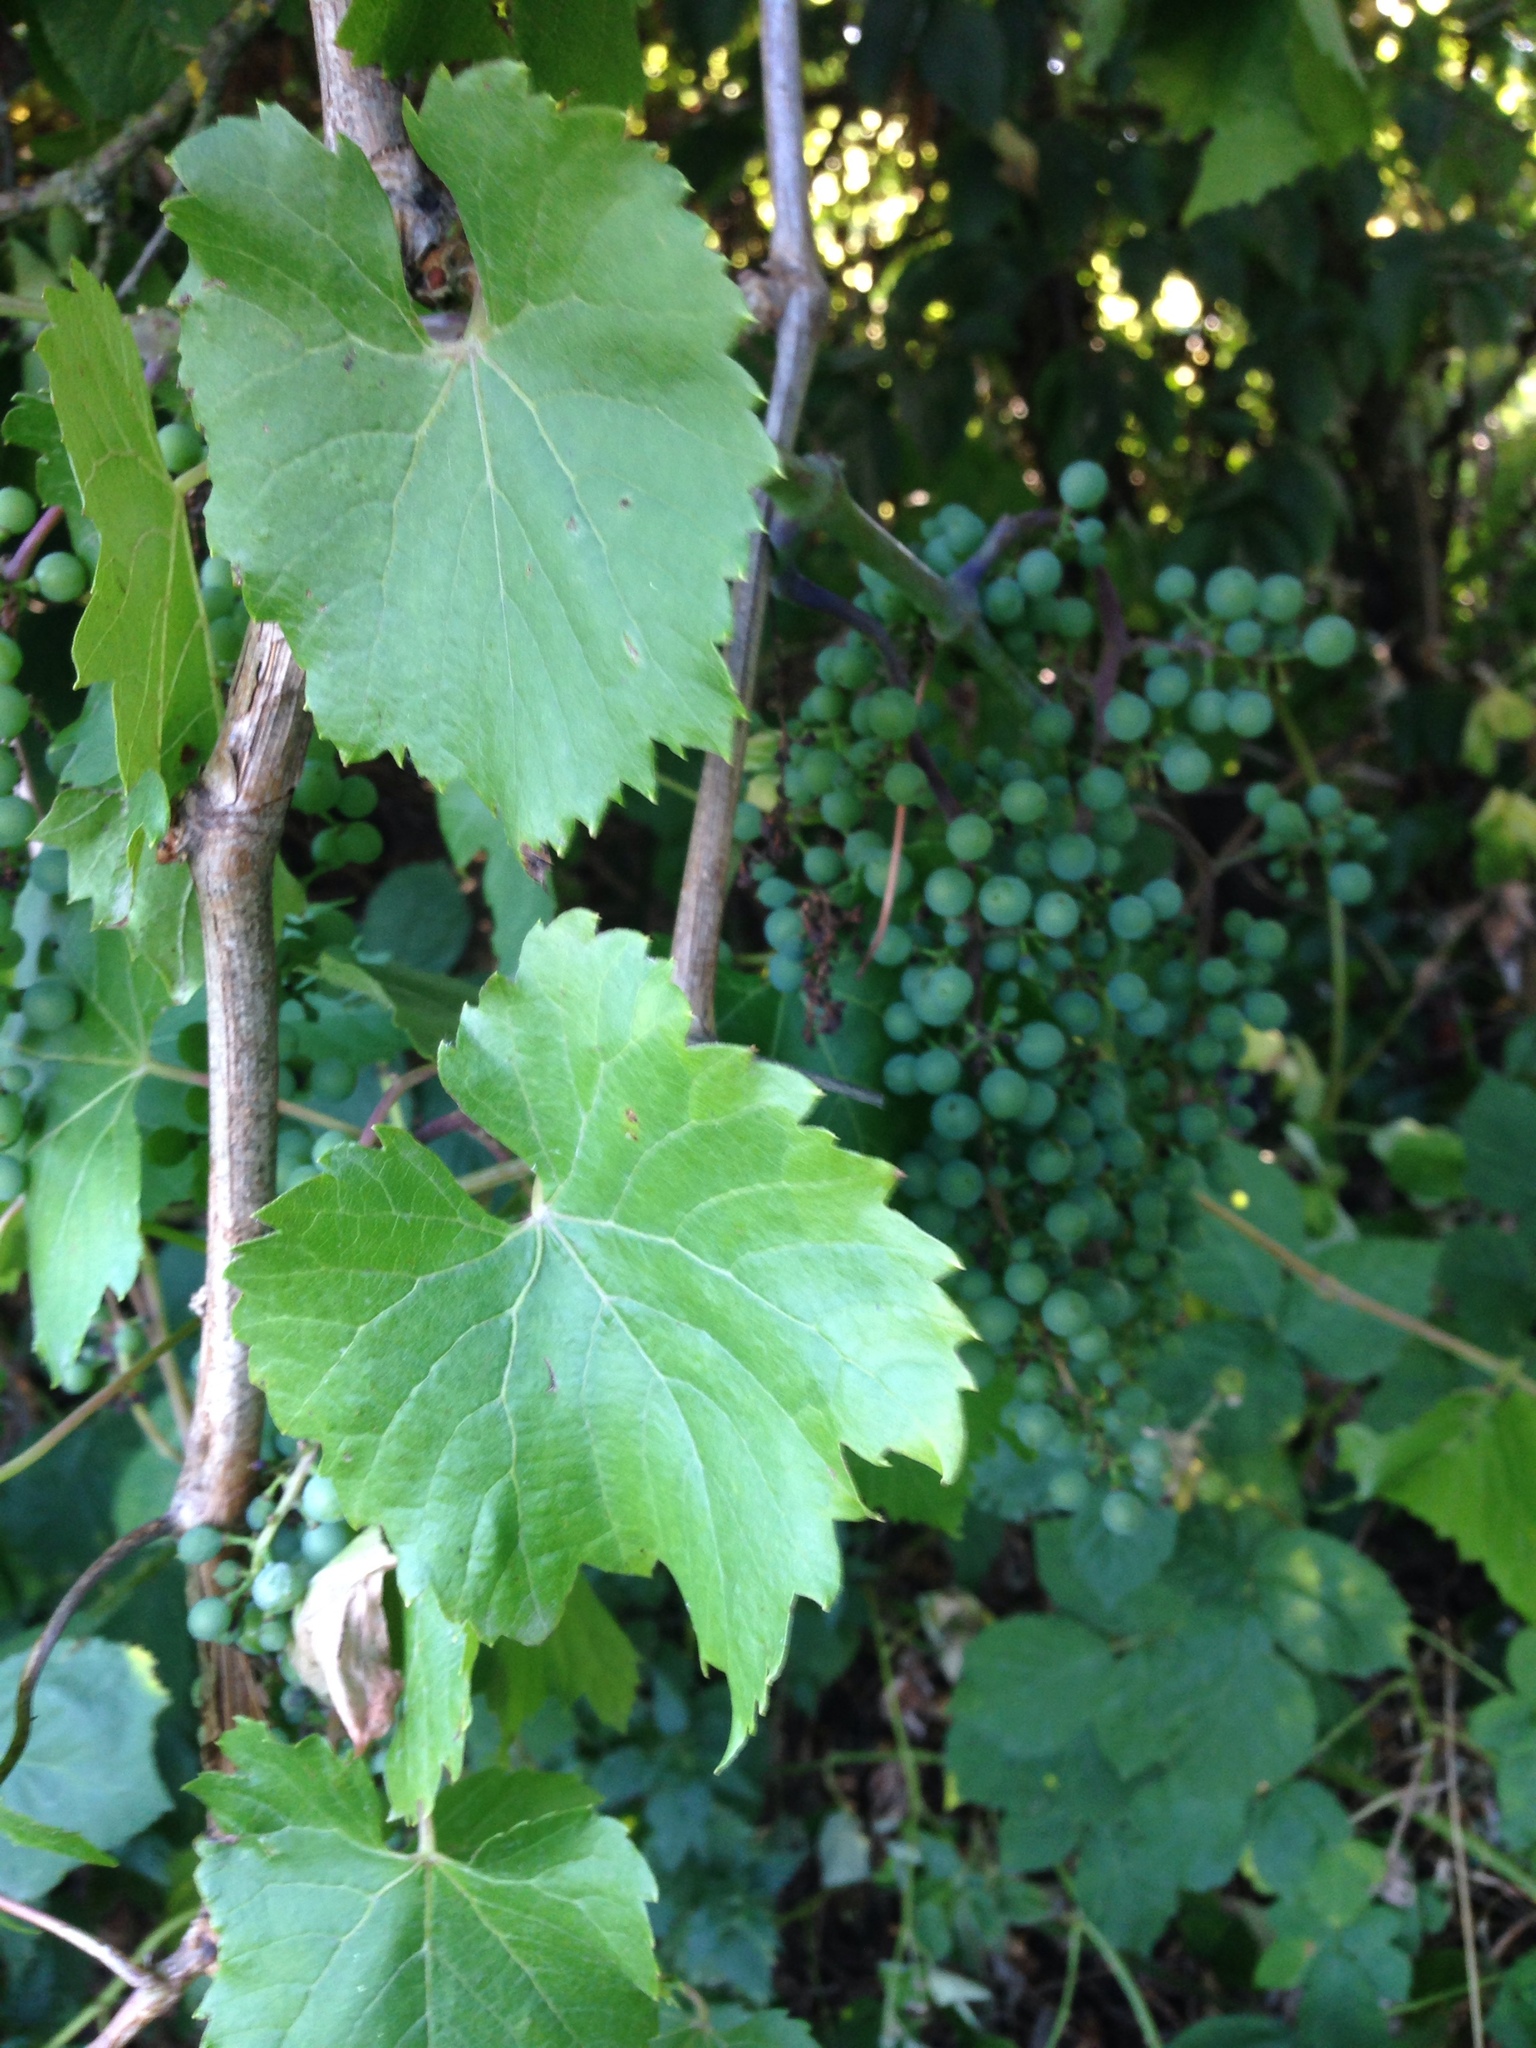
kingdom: Plantae
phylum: Tracheophyta
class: Magnoliopsida
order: Vitales
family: Vitaceae
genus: Vitis
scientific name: Vitis vinifera
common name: Grape-vine
